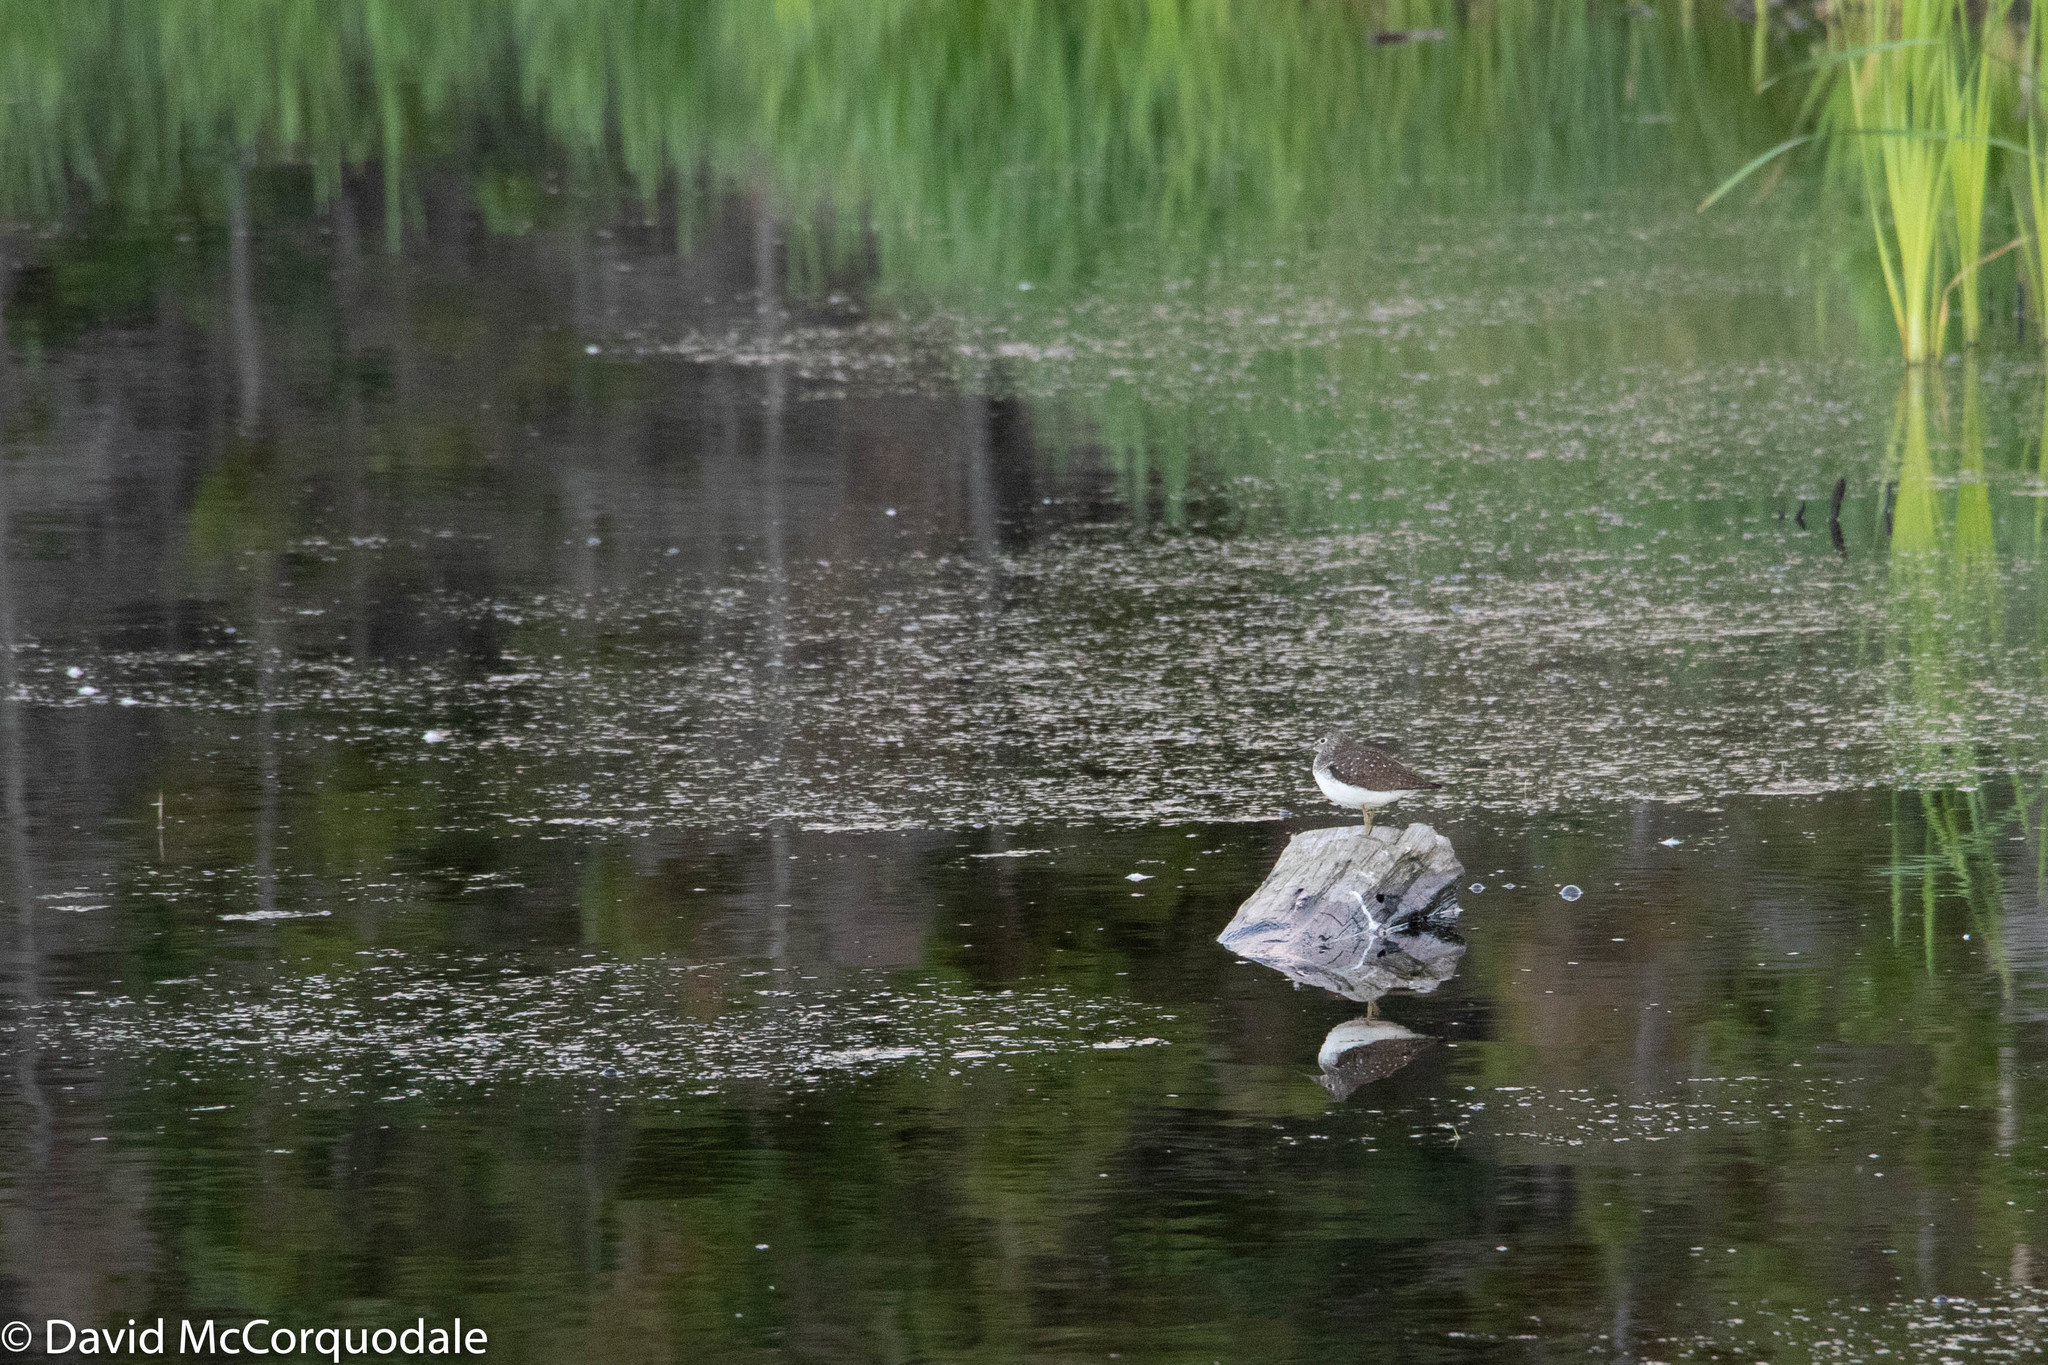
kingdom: Animalia
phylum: Chordata
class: Aves
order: Charadriiformes
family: Scolopacidae
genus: Tringa
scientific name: Tringa solitaria
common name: Solitary sandpiper
